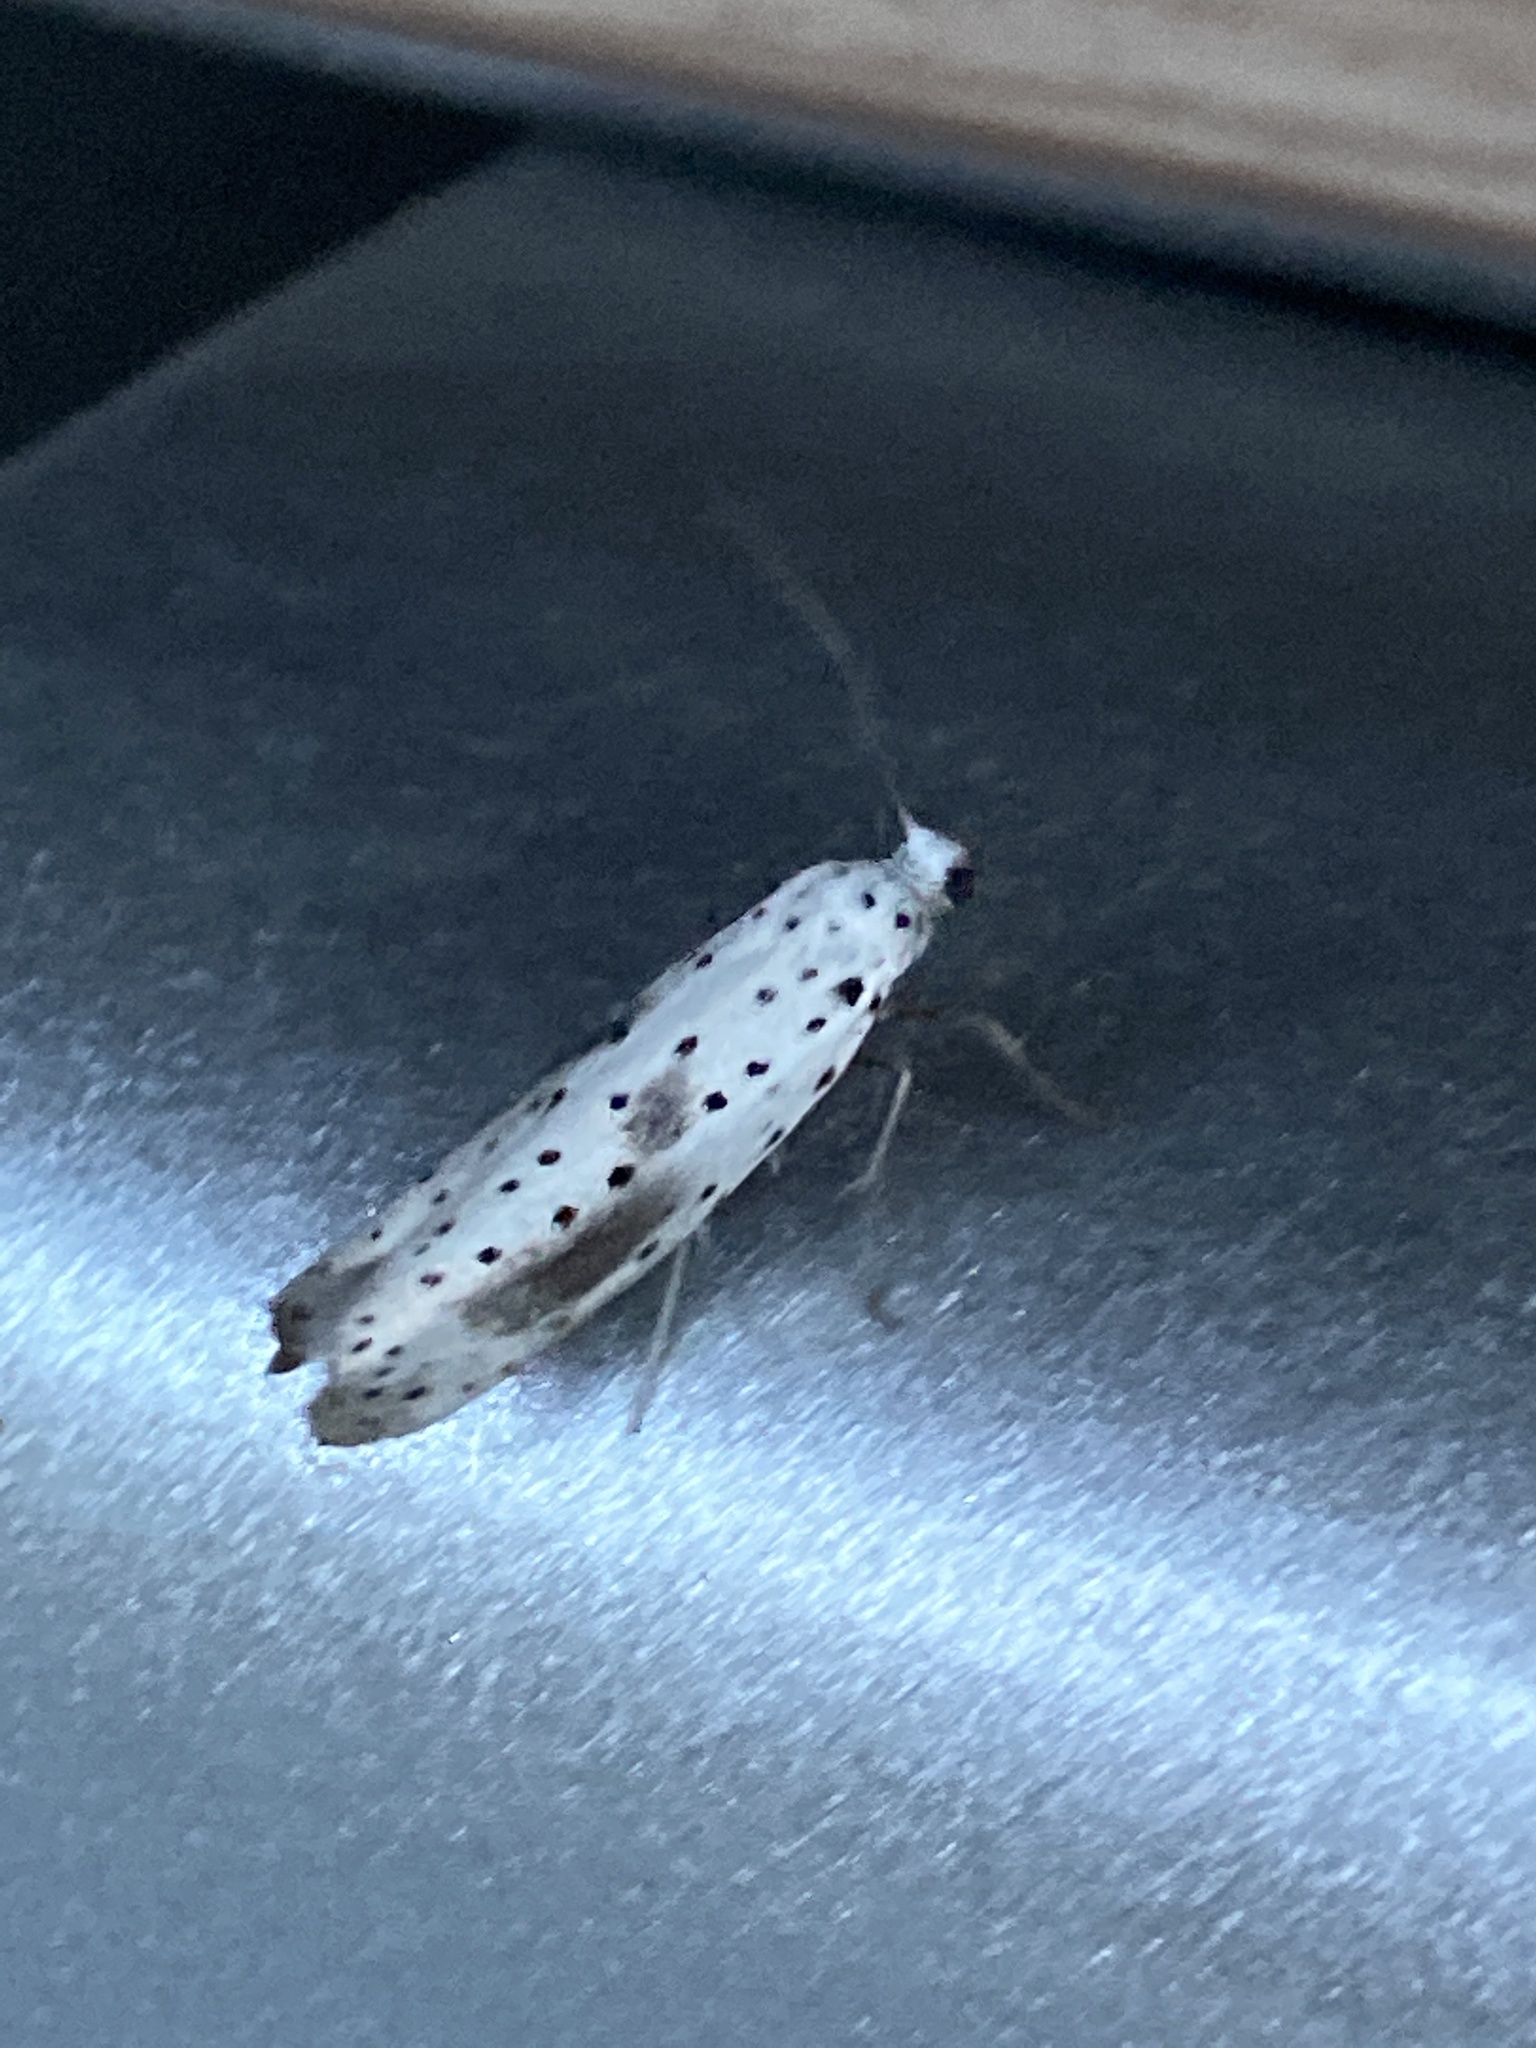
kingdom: Animalia
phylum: Arthropoda
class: Insecta
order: Lepidoptera
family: Yponomeutidae
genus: Yponomeuta
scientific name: Yponomeuta irrorella
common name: Scarce ermine
